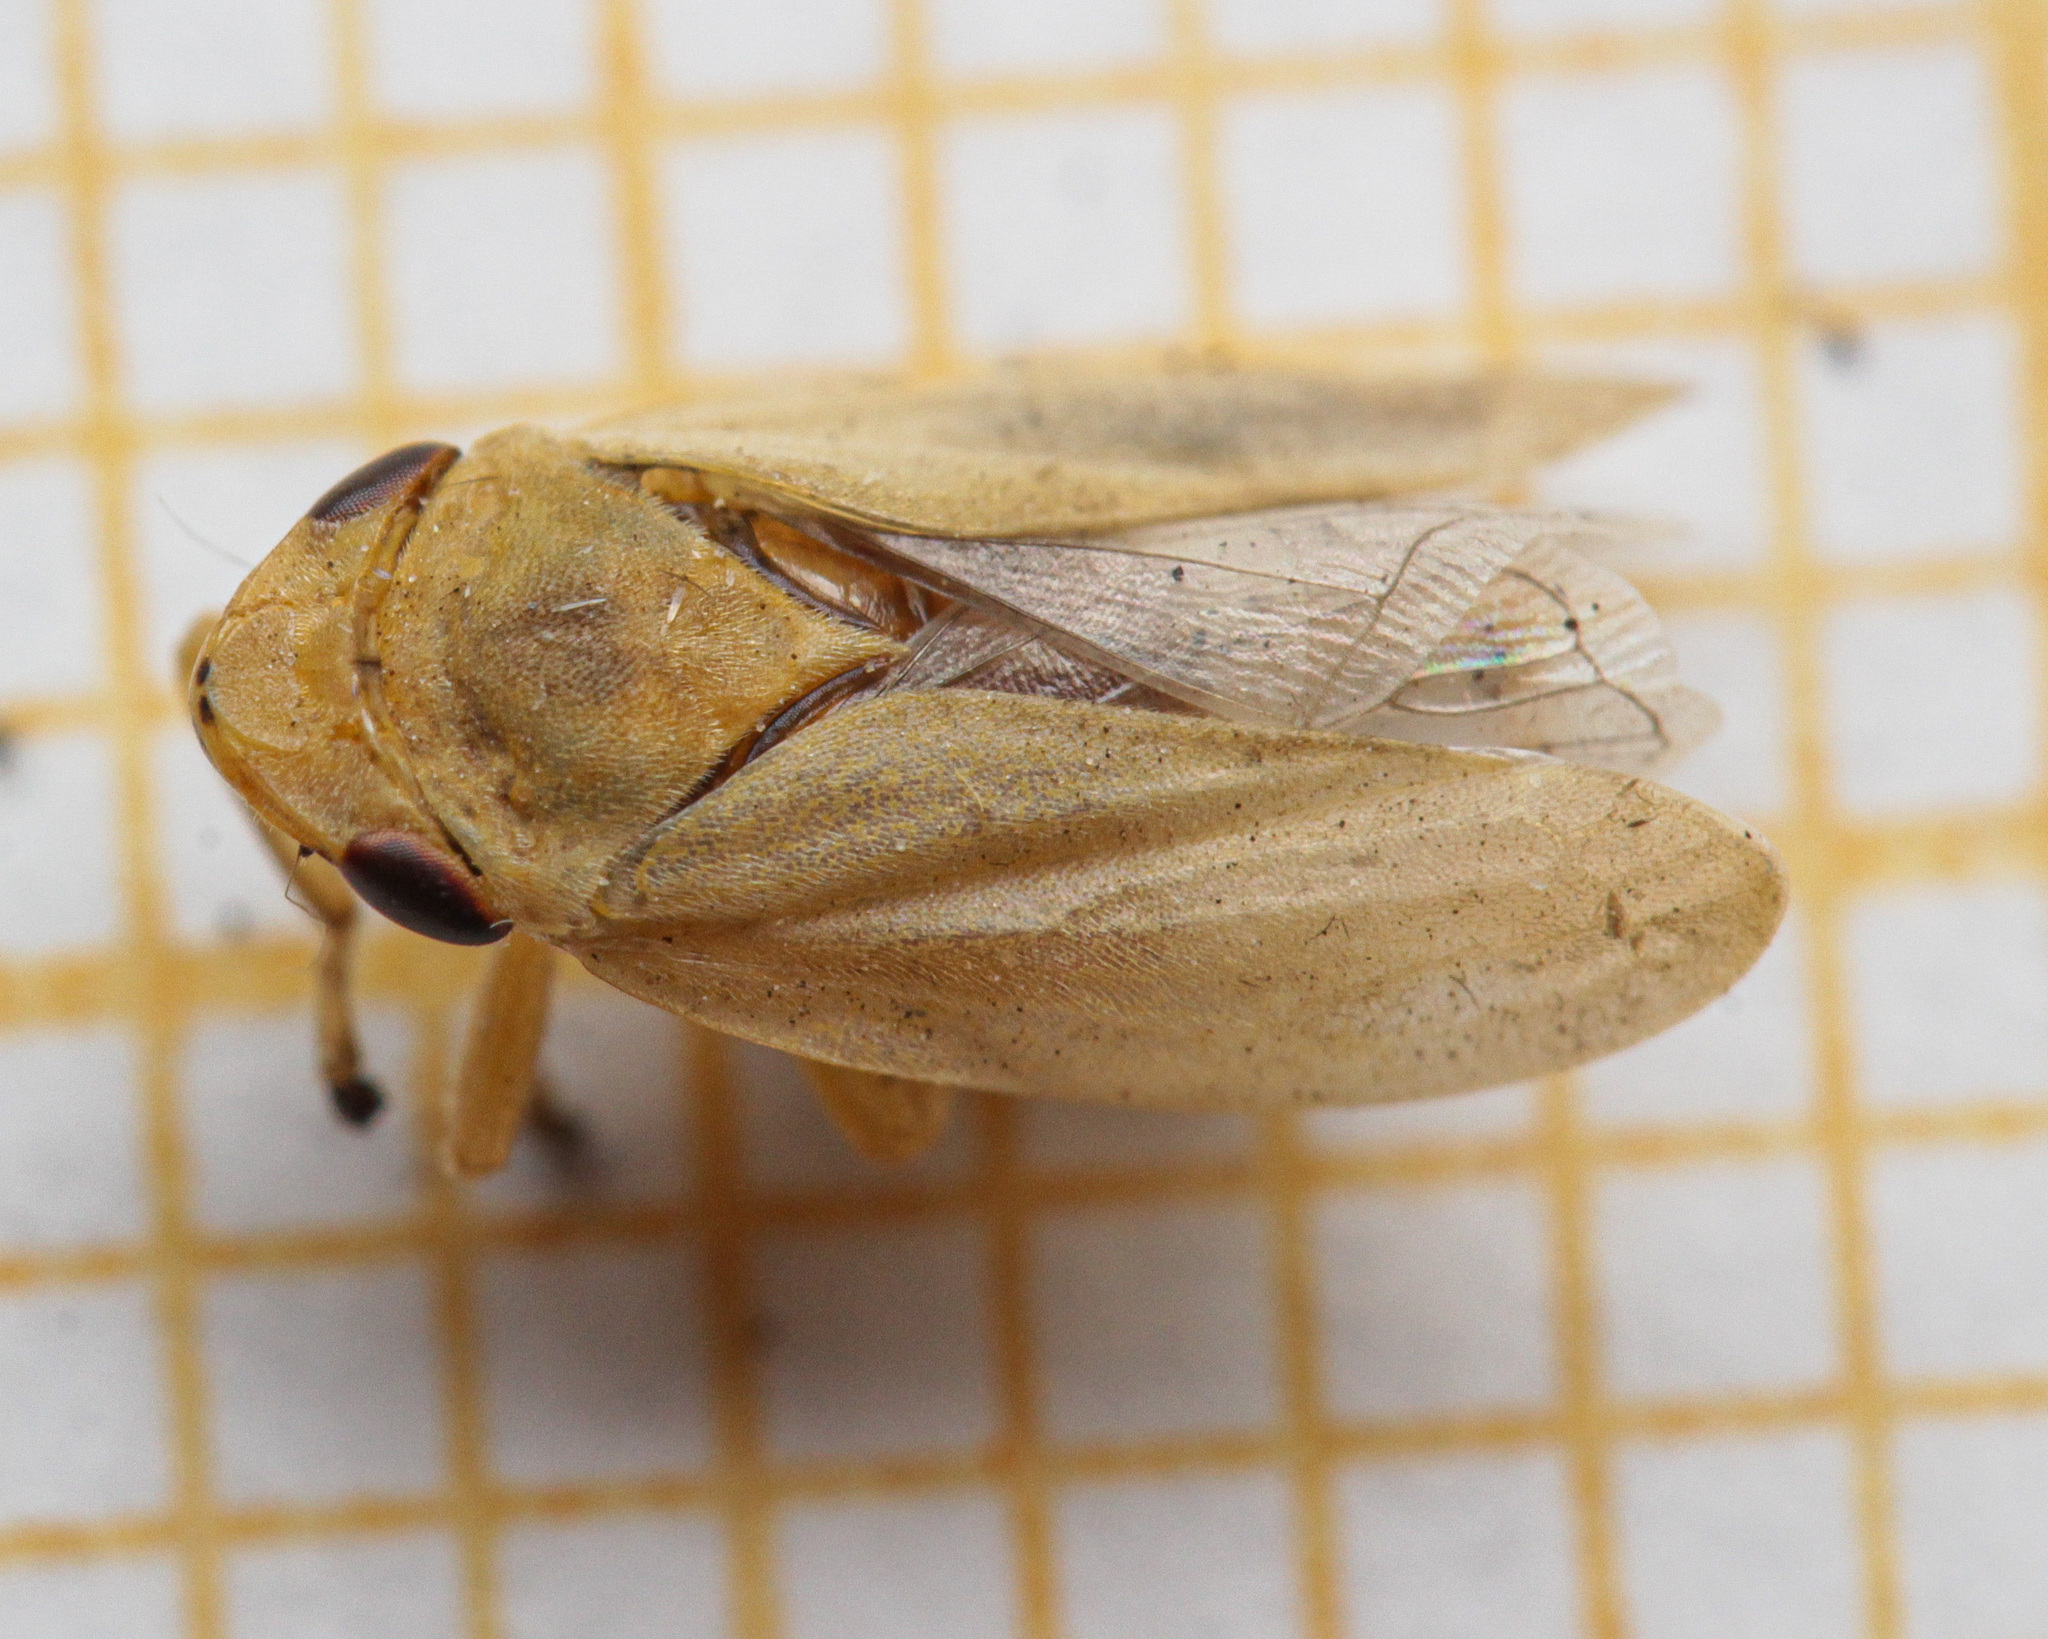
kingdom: Animalia
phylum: Arthropoda
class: Insecta
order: Hemiptera
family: Aphrophoridae
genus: Philaenus
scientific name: Philaenus spumarius
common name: Meadow spittlebug
